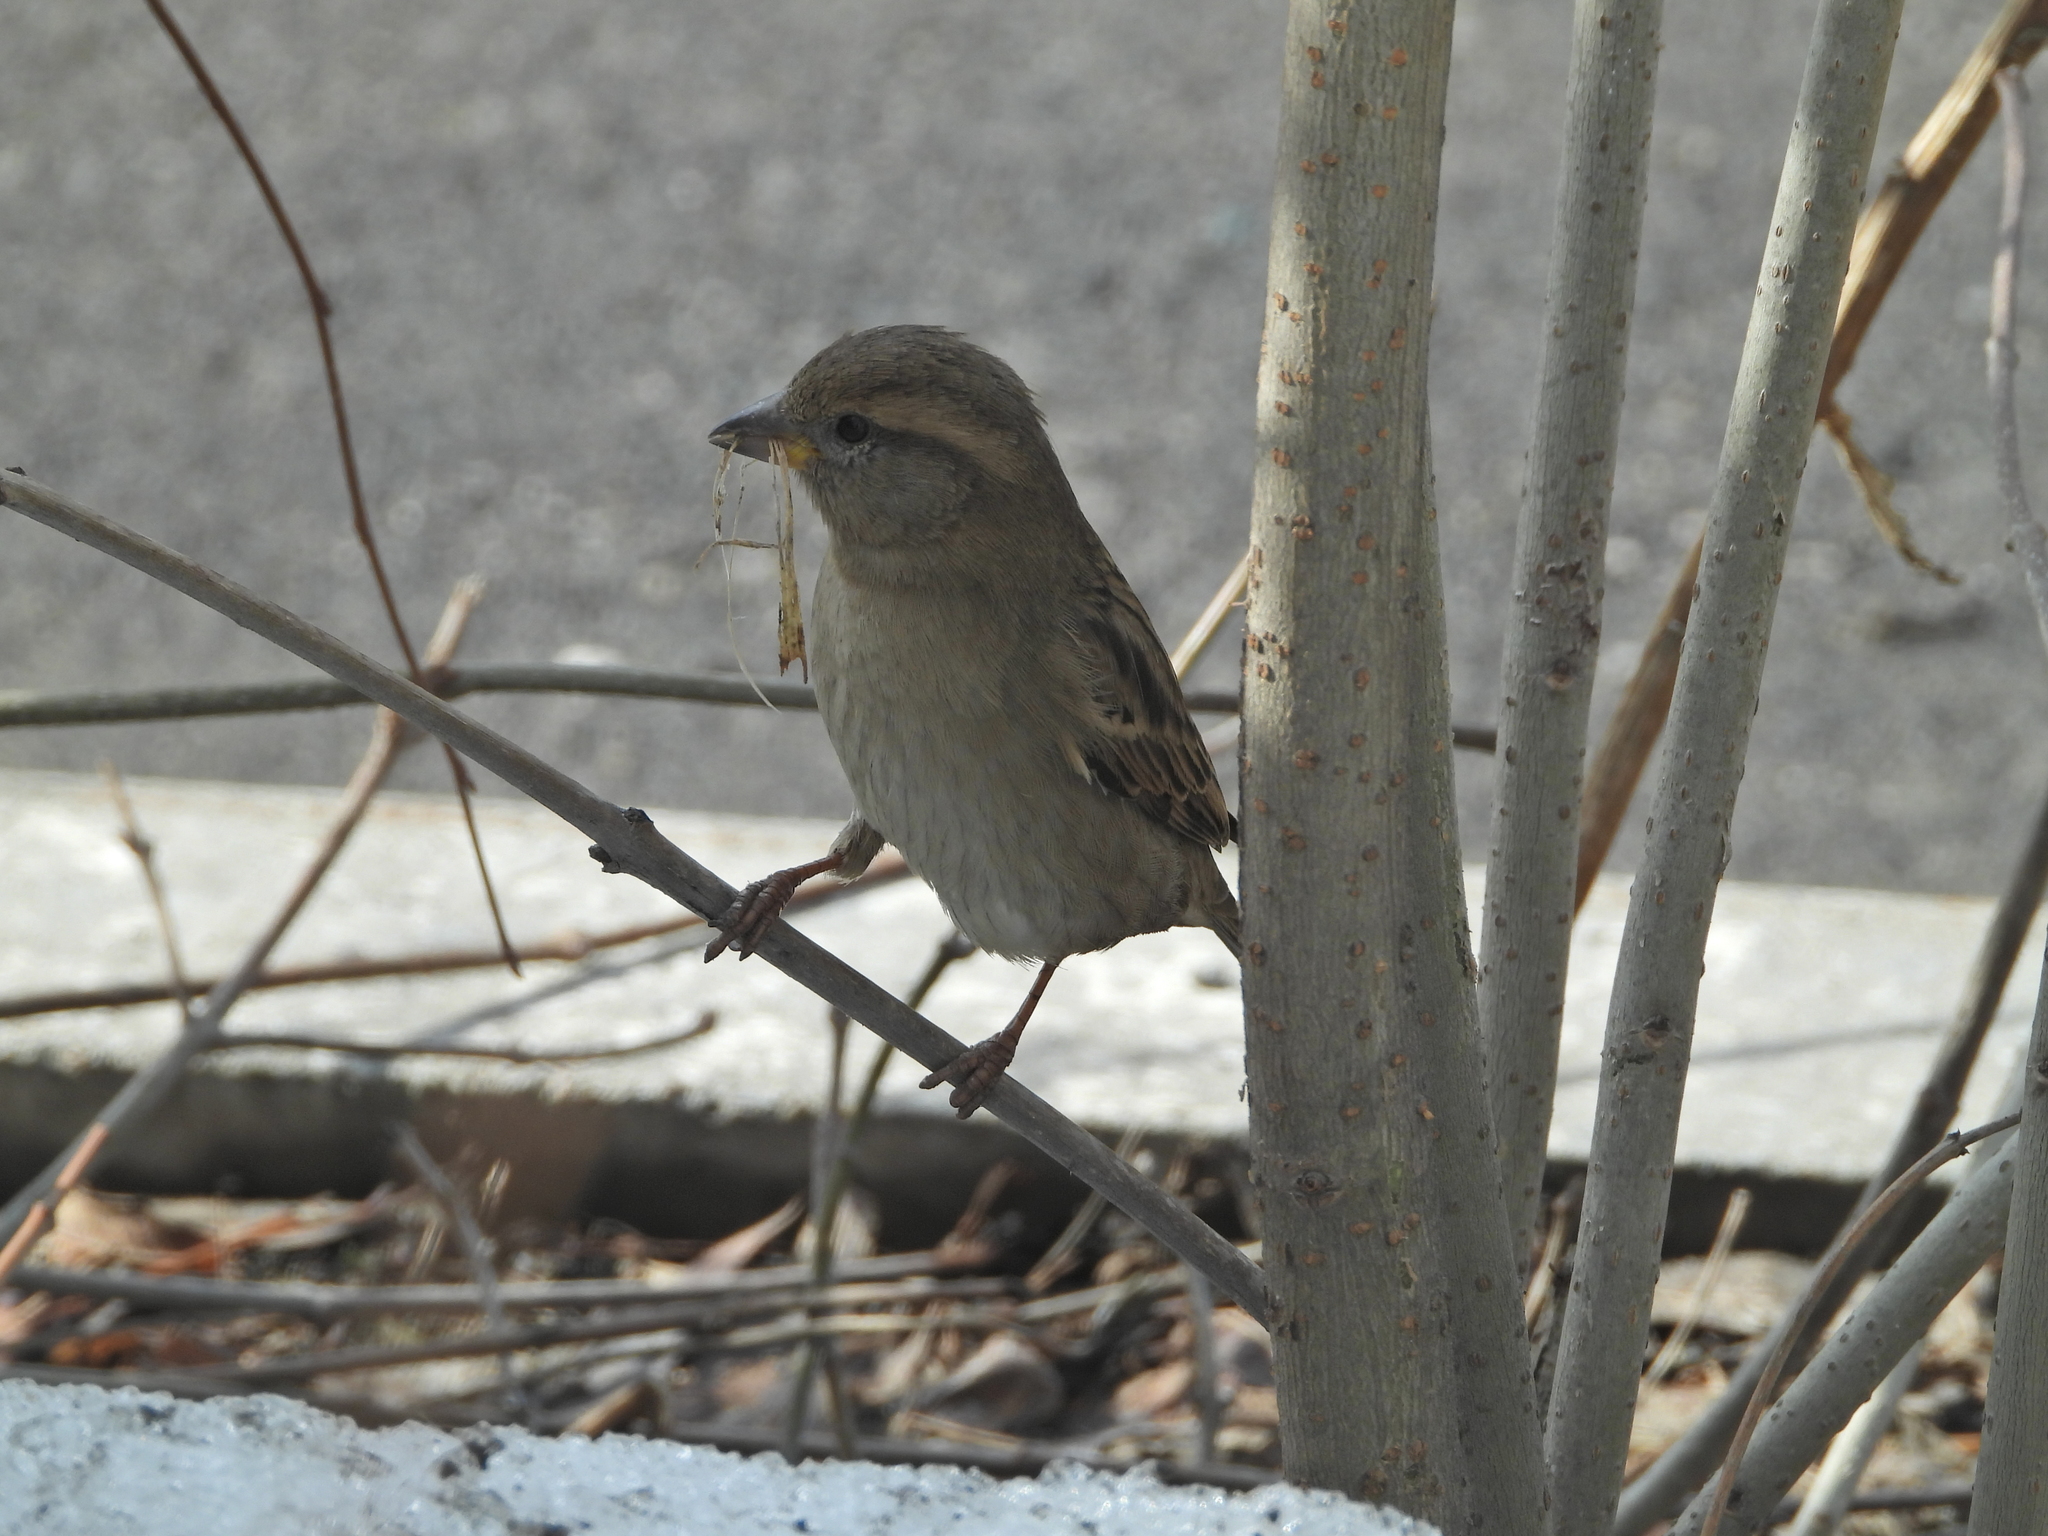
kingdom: Animalia
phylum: Chordata
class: Aves
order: Passeriformes
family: Passeridae
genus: Passer
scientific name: Passer domesticus
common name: House sparrow
